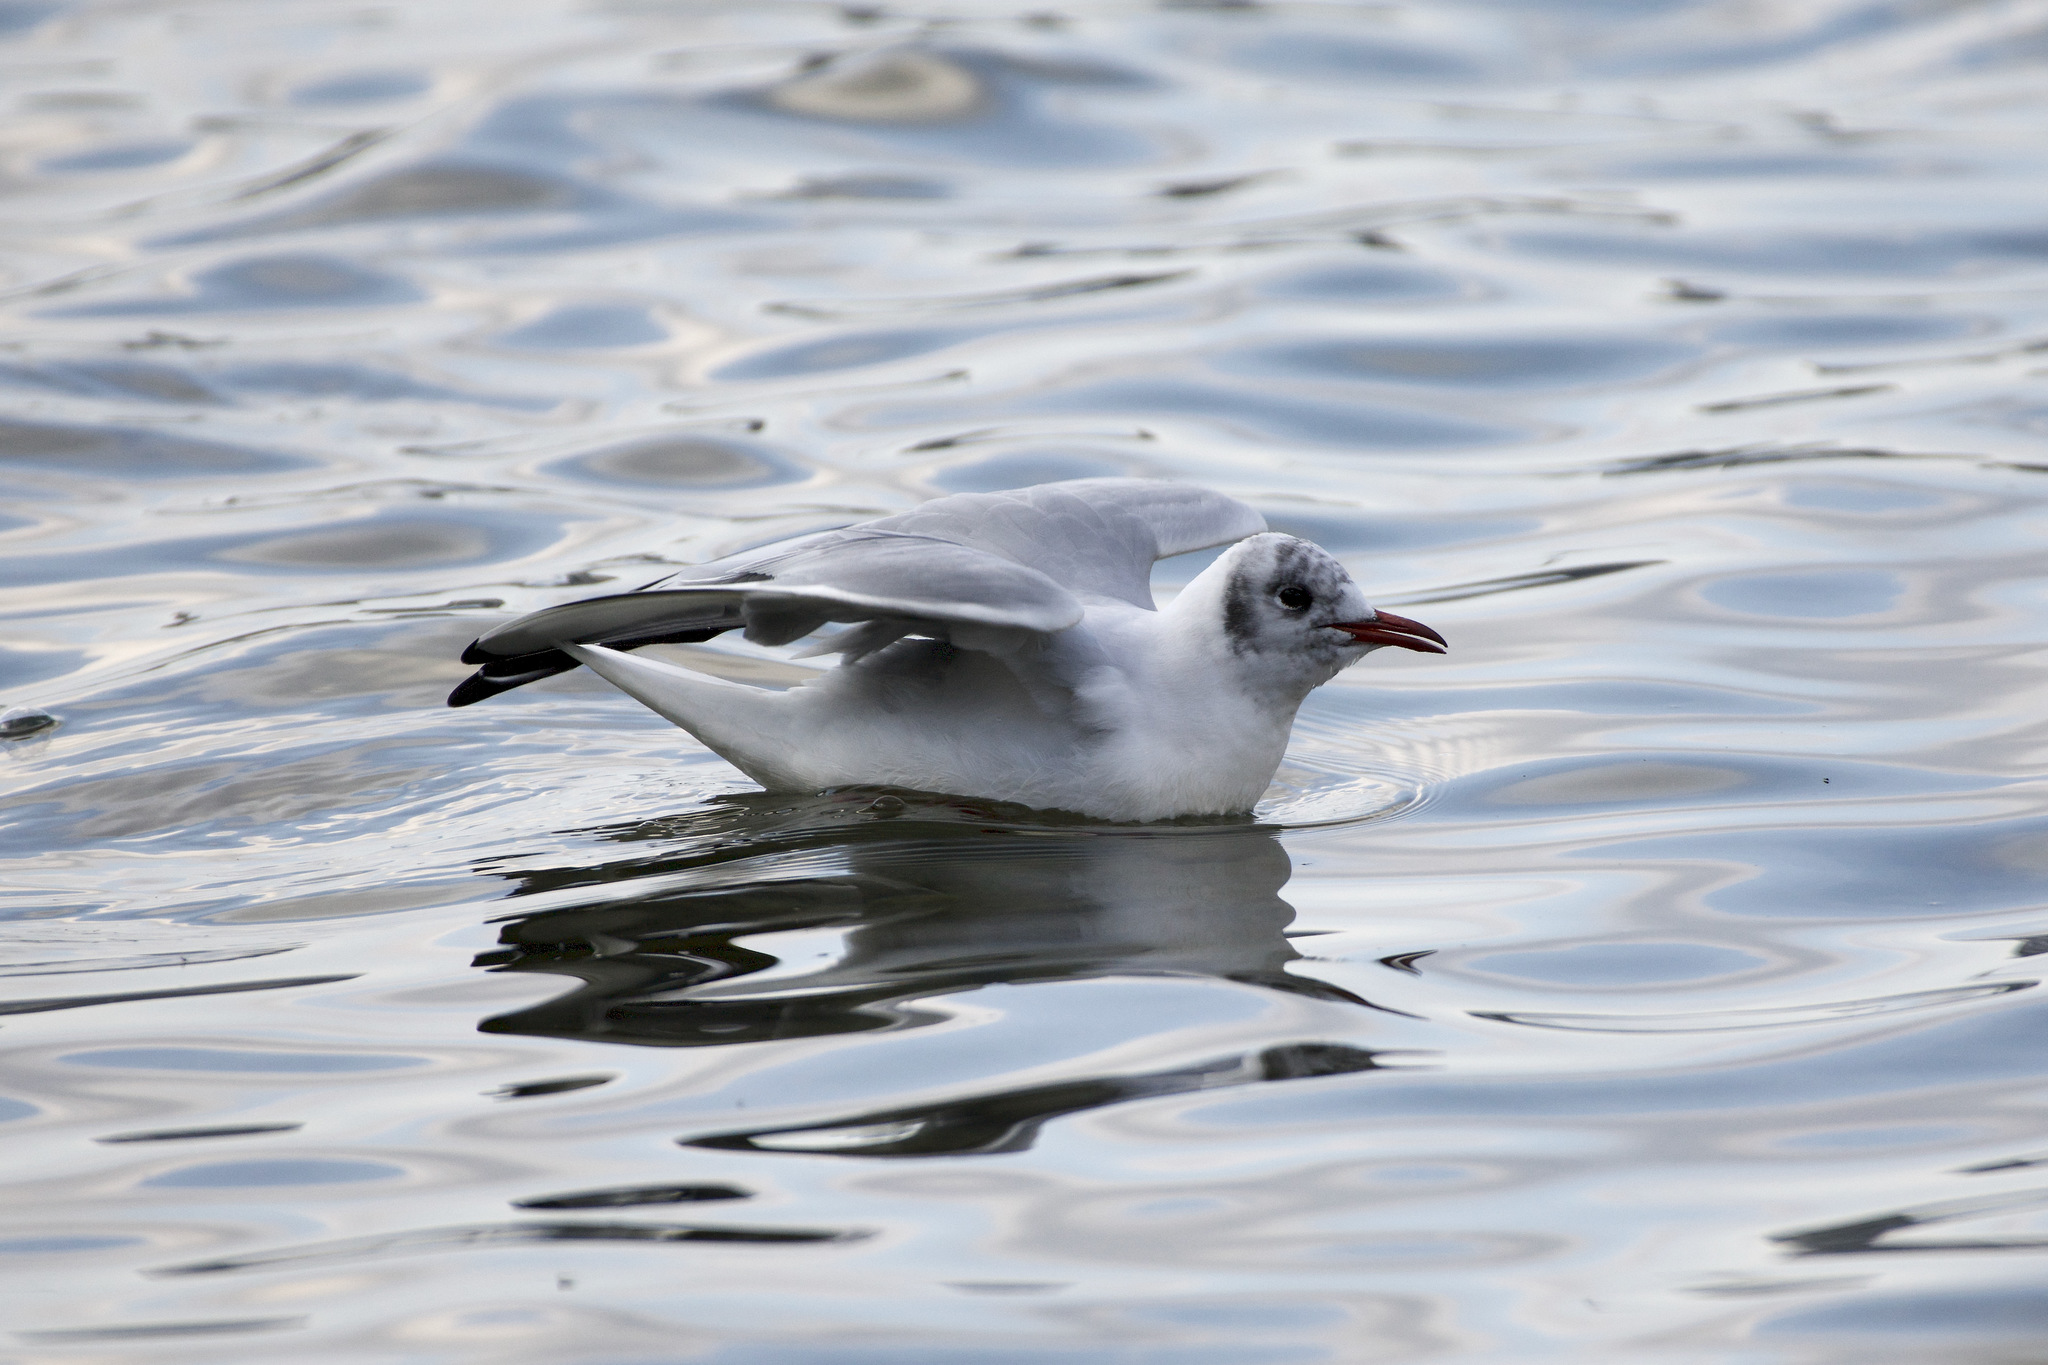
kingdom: Animalia
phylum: Chordata
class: Aves
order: Charadriiformes
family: Laridae
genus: Chroicocephalus
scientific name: Chroicocephalus ridibundus
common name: Black-headed gull
